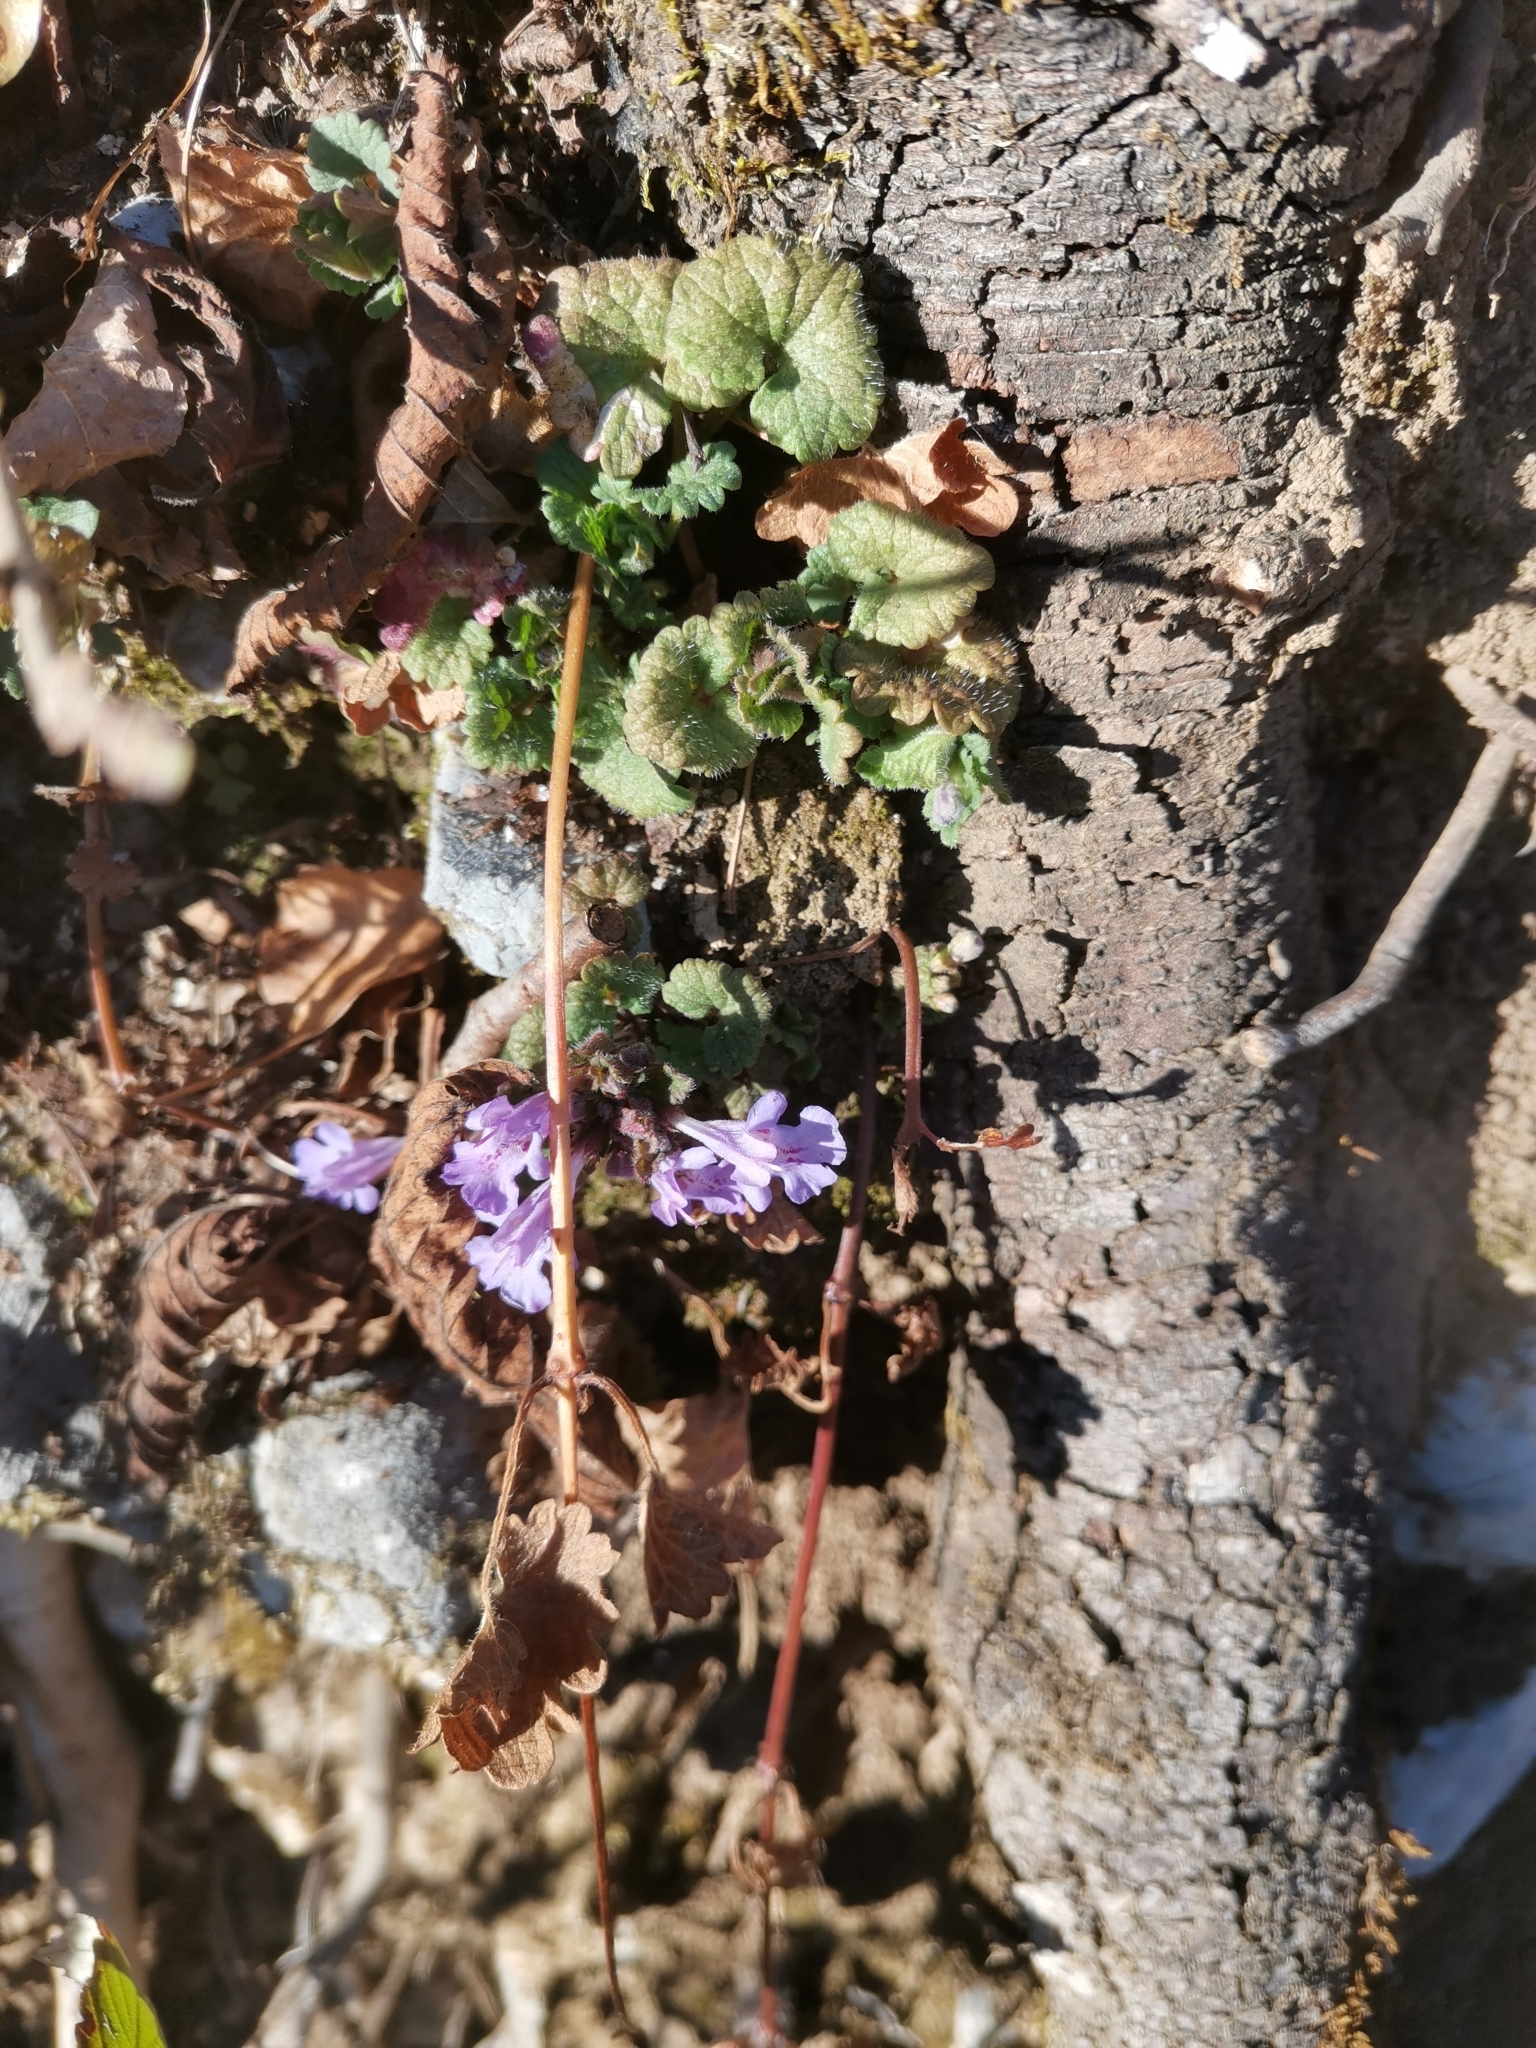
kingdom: Plantae
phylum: Tracheophyta
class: Magnoliopsida
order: Lamiales
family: Lamiaceae
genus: Glechoma
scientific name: Glechoma hederacea
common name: Ground ivy
